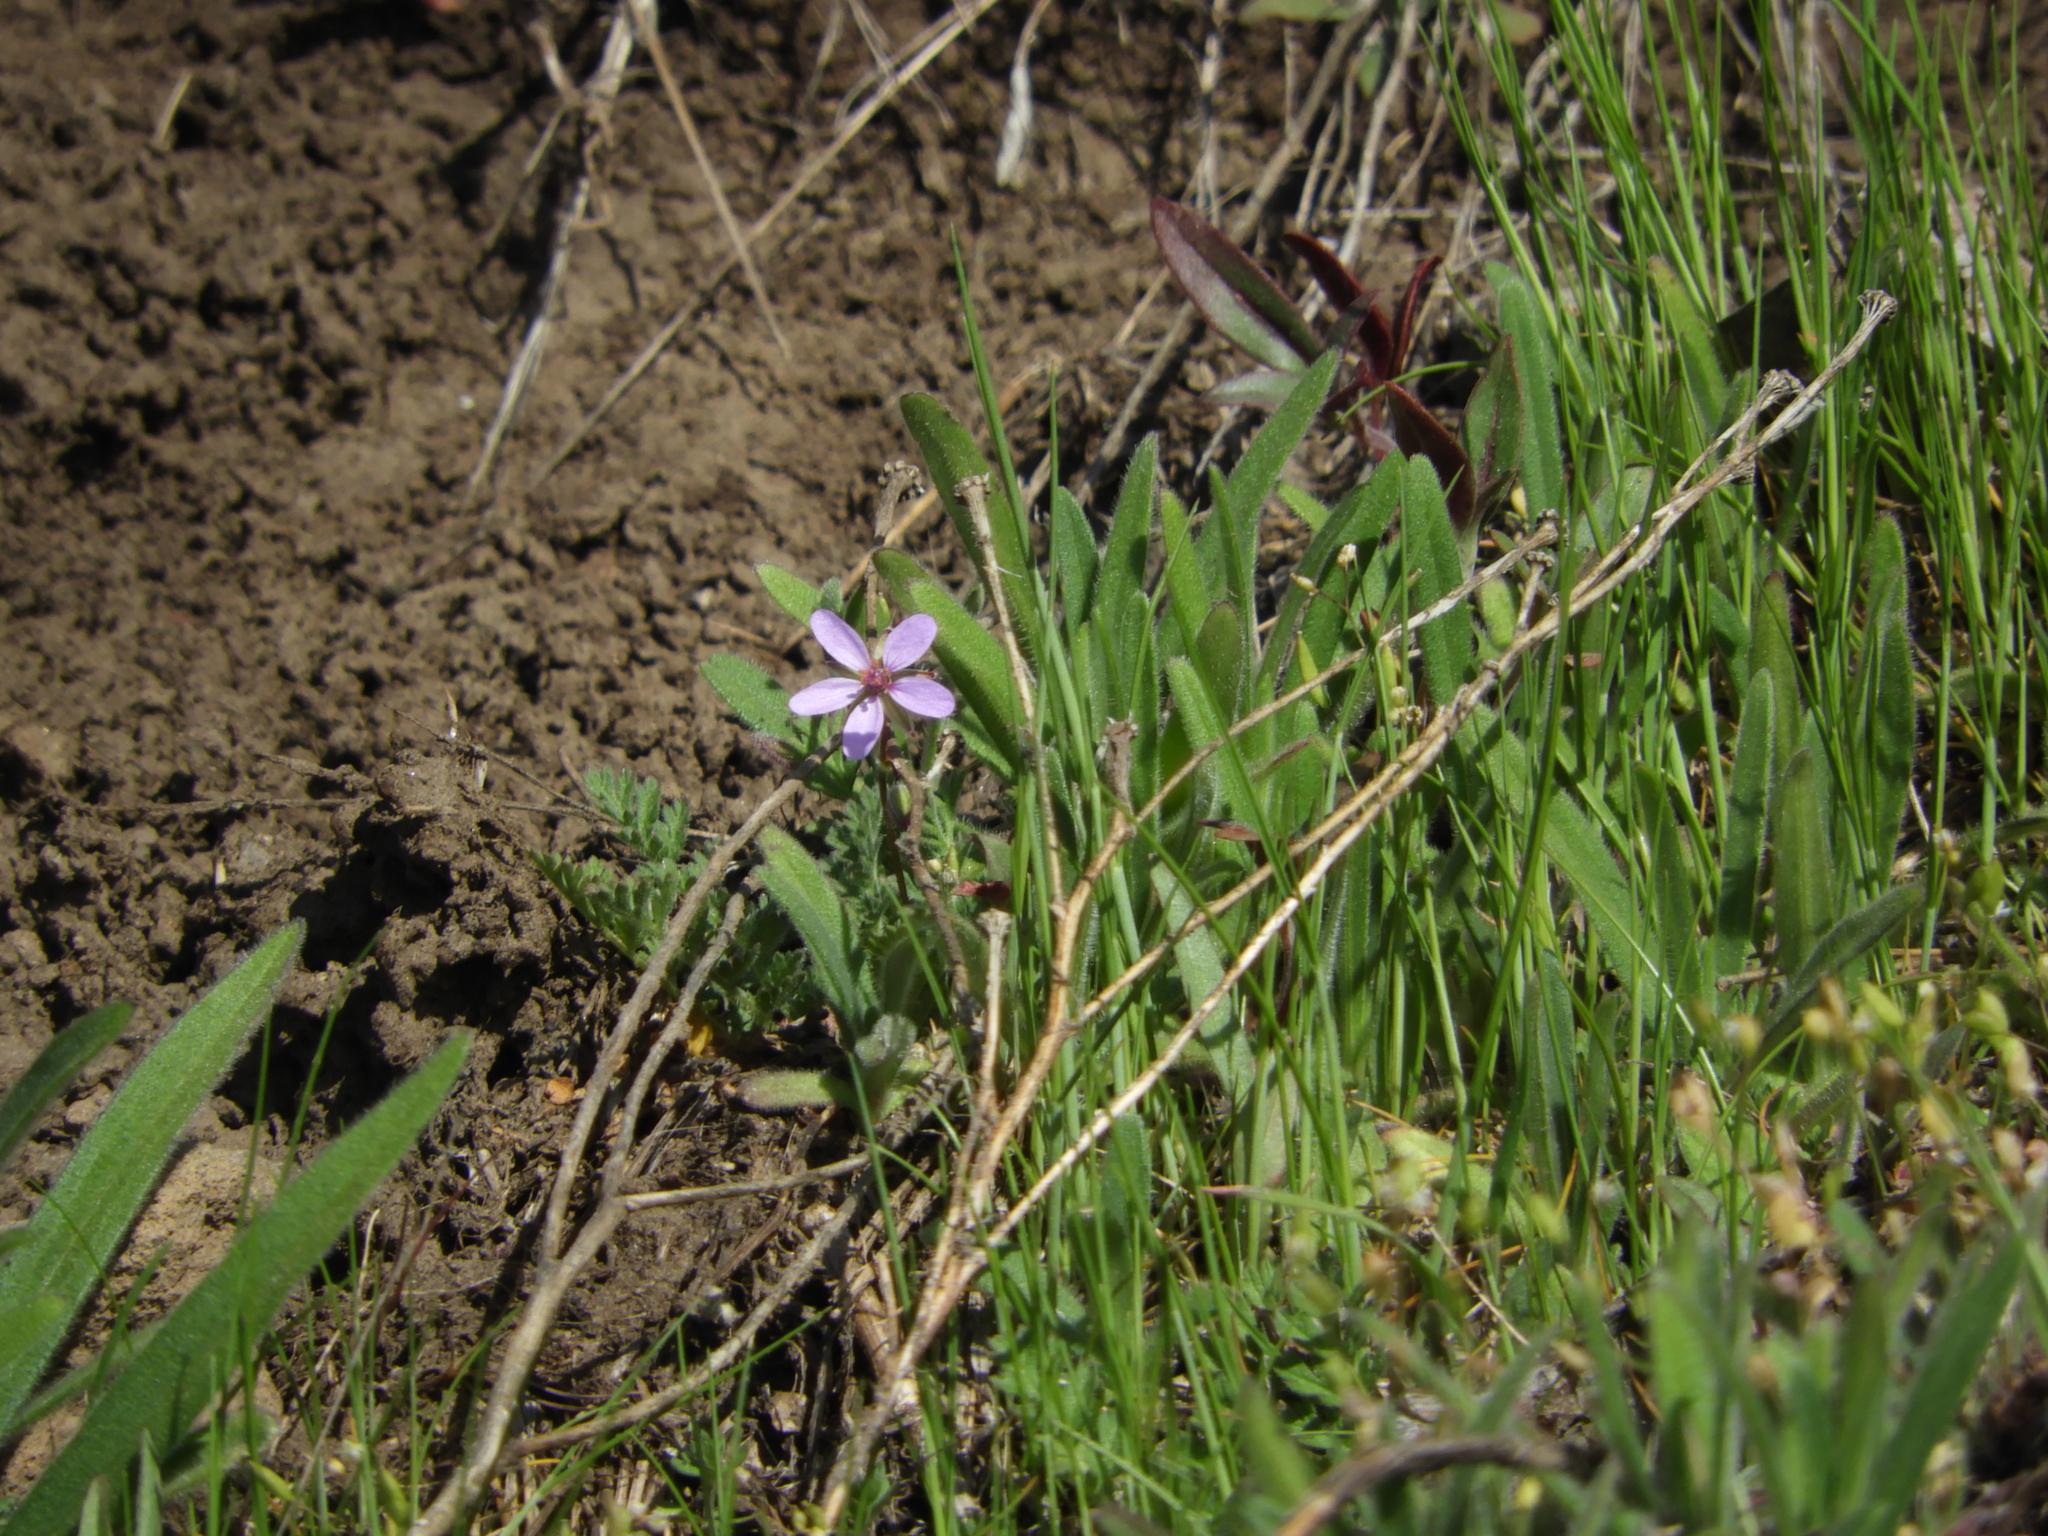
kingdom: Plantae
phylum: Tracheophyta
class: Magnoliopsida
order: Geraniales
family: Geraniaceae
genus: Erodium
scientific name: Erodium cicutarium
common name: Common stork's-bill
